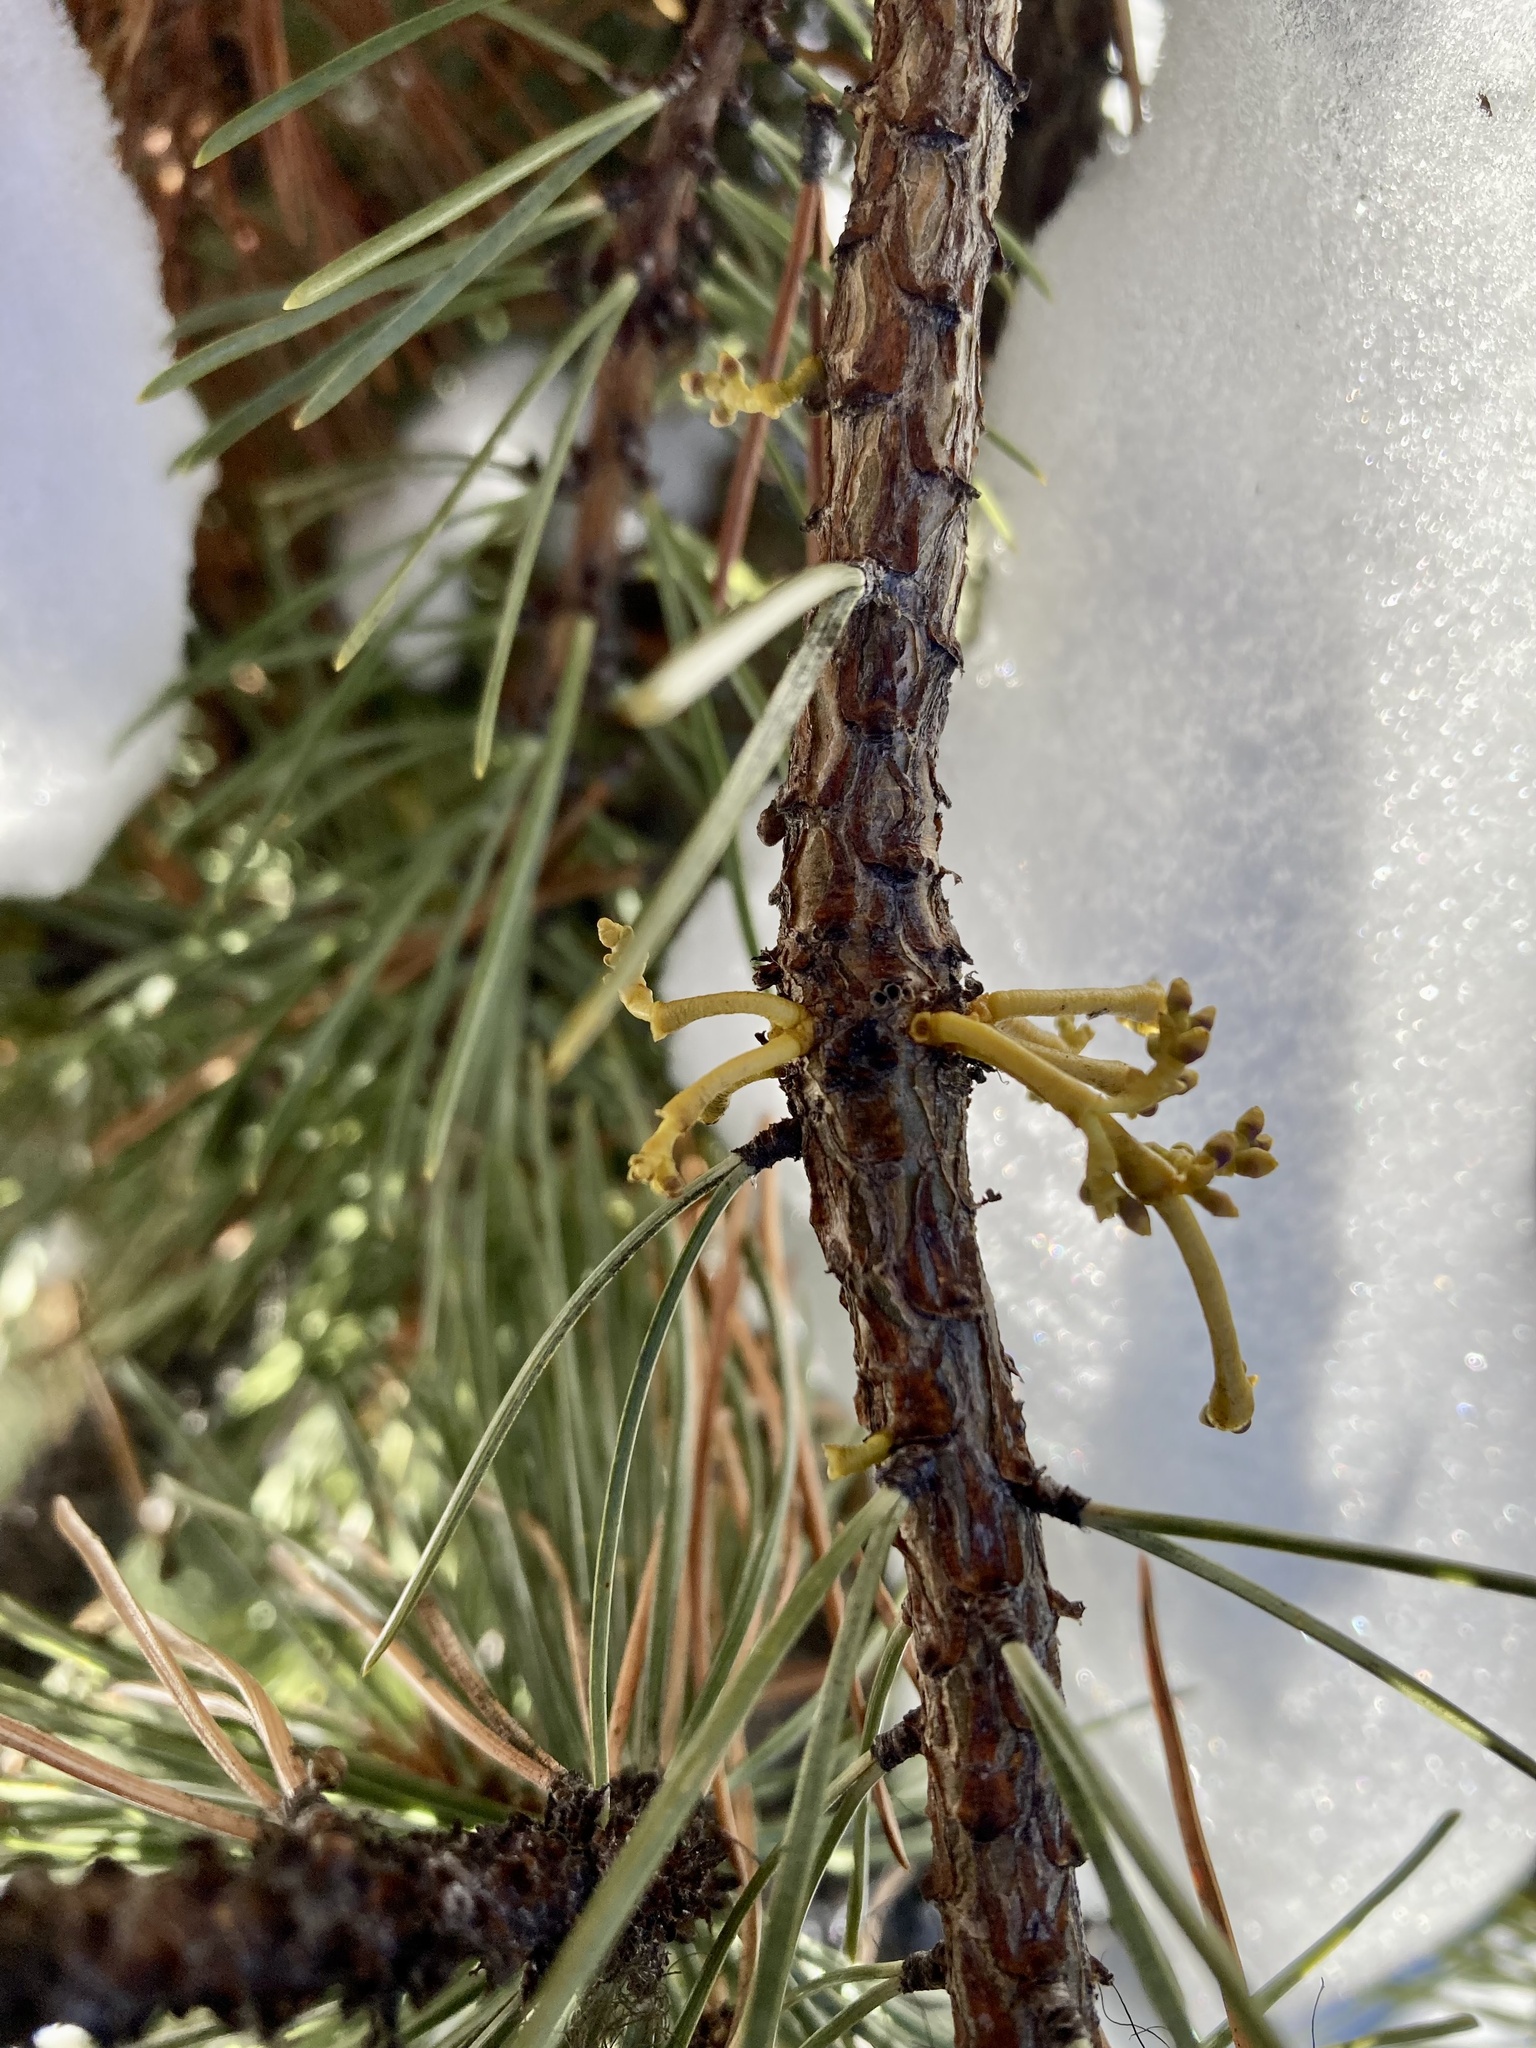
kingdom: Plantae
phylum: Tracheophyta
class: Magnoliopsida
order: Santalales
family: Viscaceae
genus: Arceuthobium
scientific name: Arceuthobium americanum
